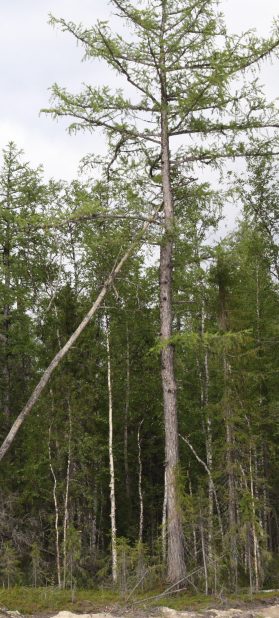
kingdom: Plantae
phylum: Tracheophyta
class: Pinopsida
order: Pinales
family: Pinaceae
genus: Larix
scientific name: Larix sibirica
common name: Siberian larch
